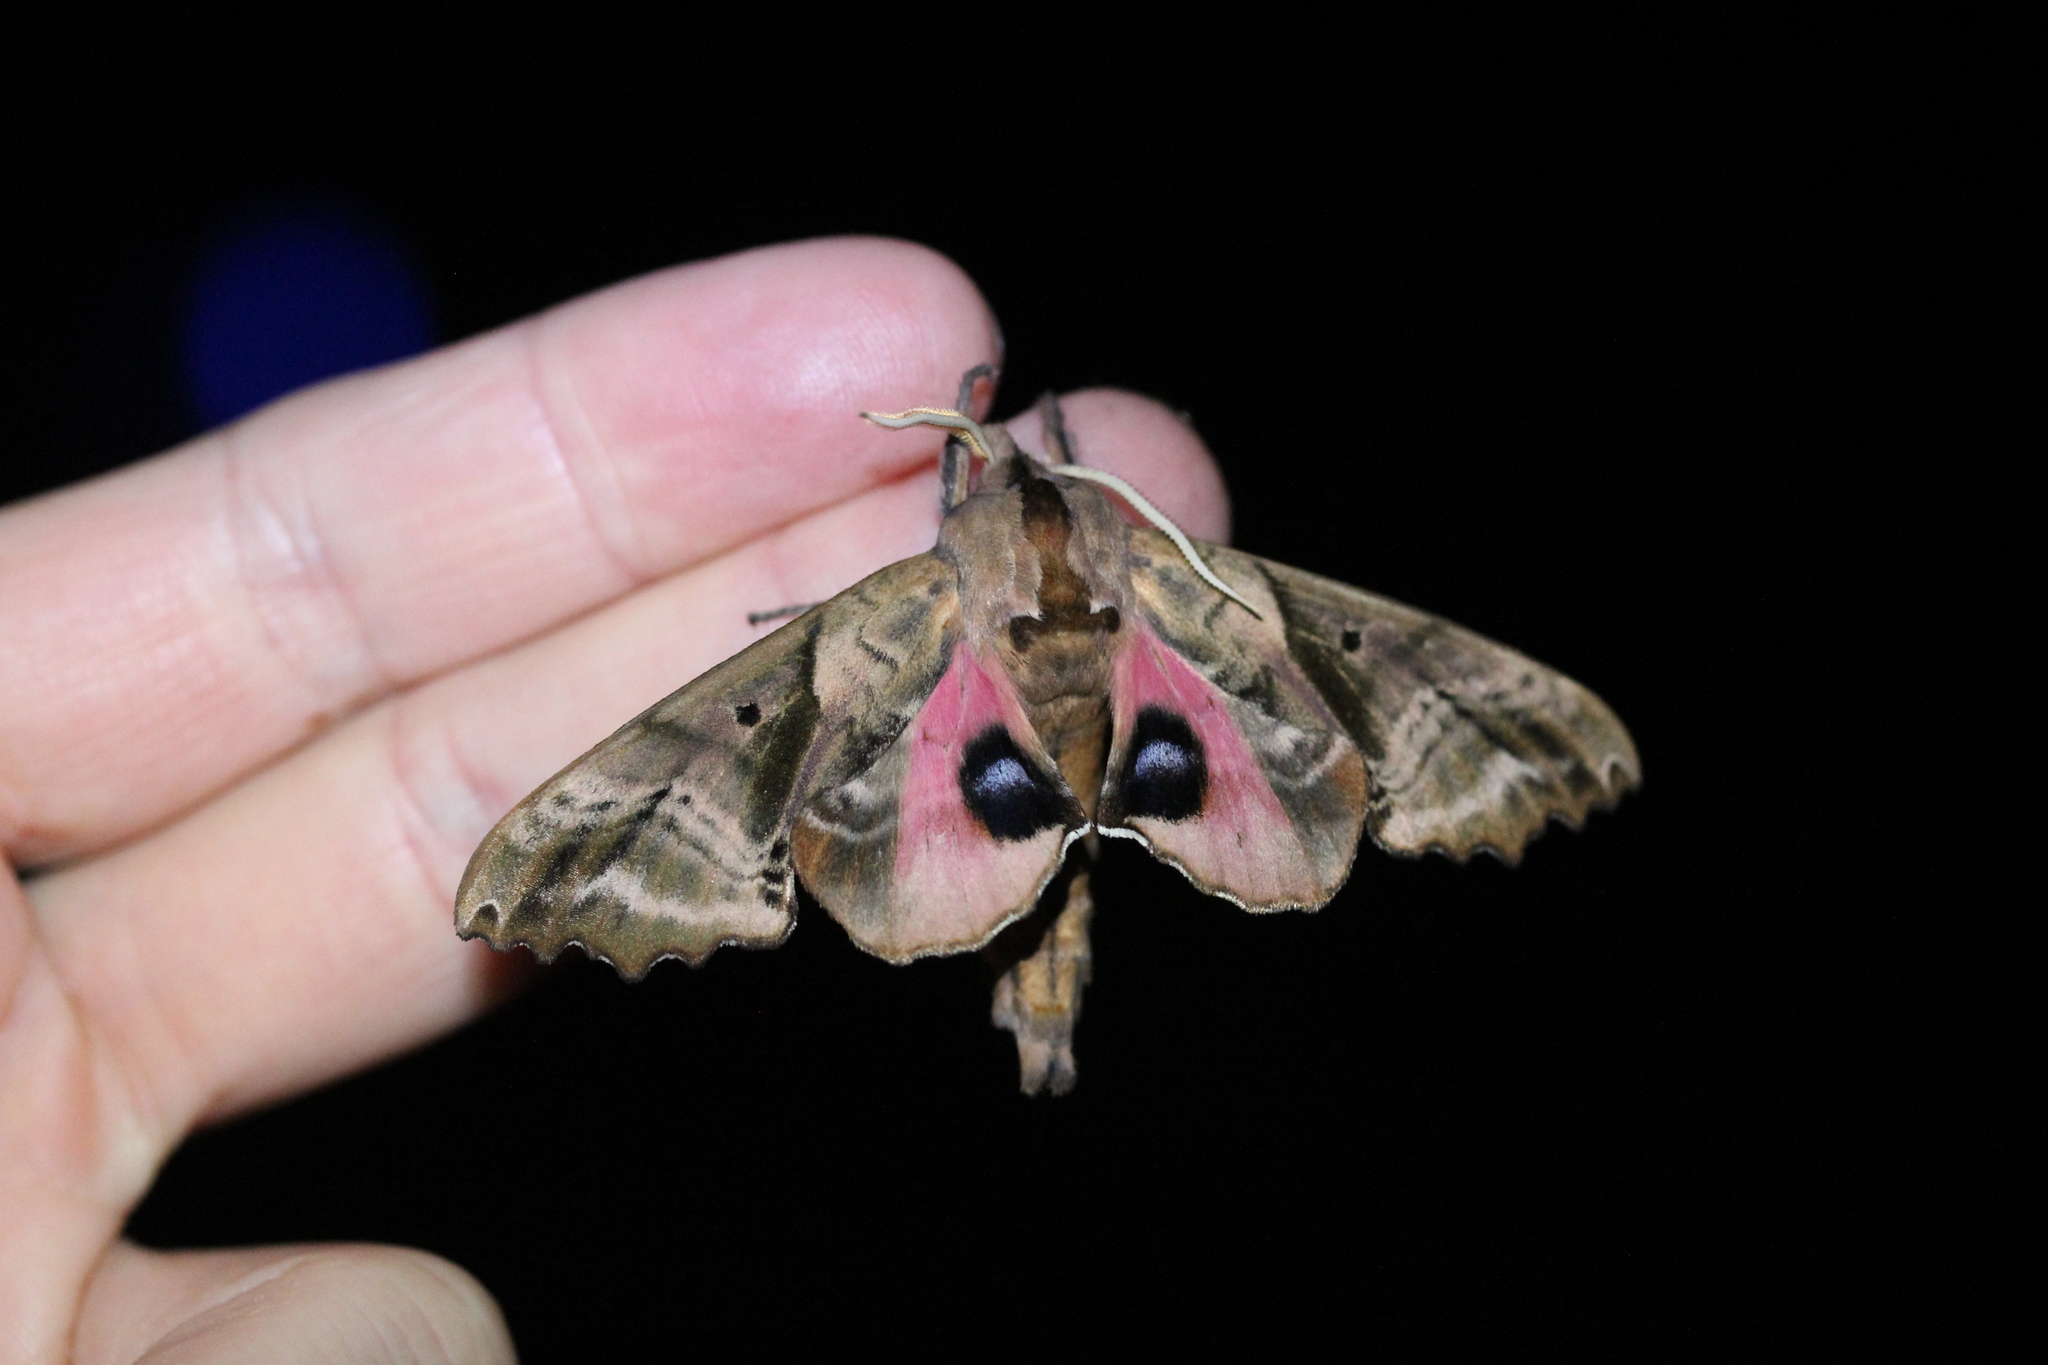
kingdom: Animalia
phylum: Arthropoda
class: Insecta
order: Lepidoptera
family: Sphingidae
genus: Paonias
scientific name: Paonias excaecata
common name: Blind-eyed sphinx
